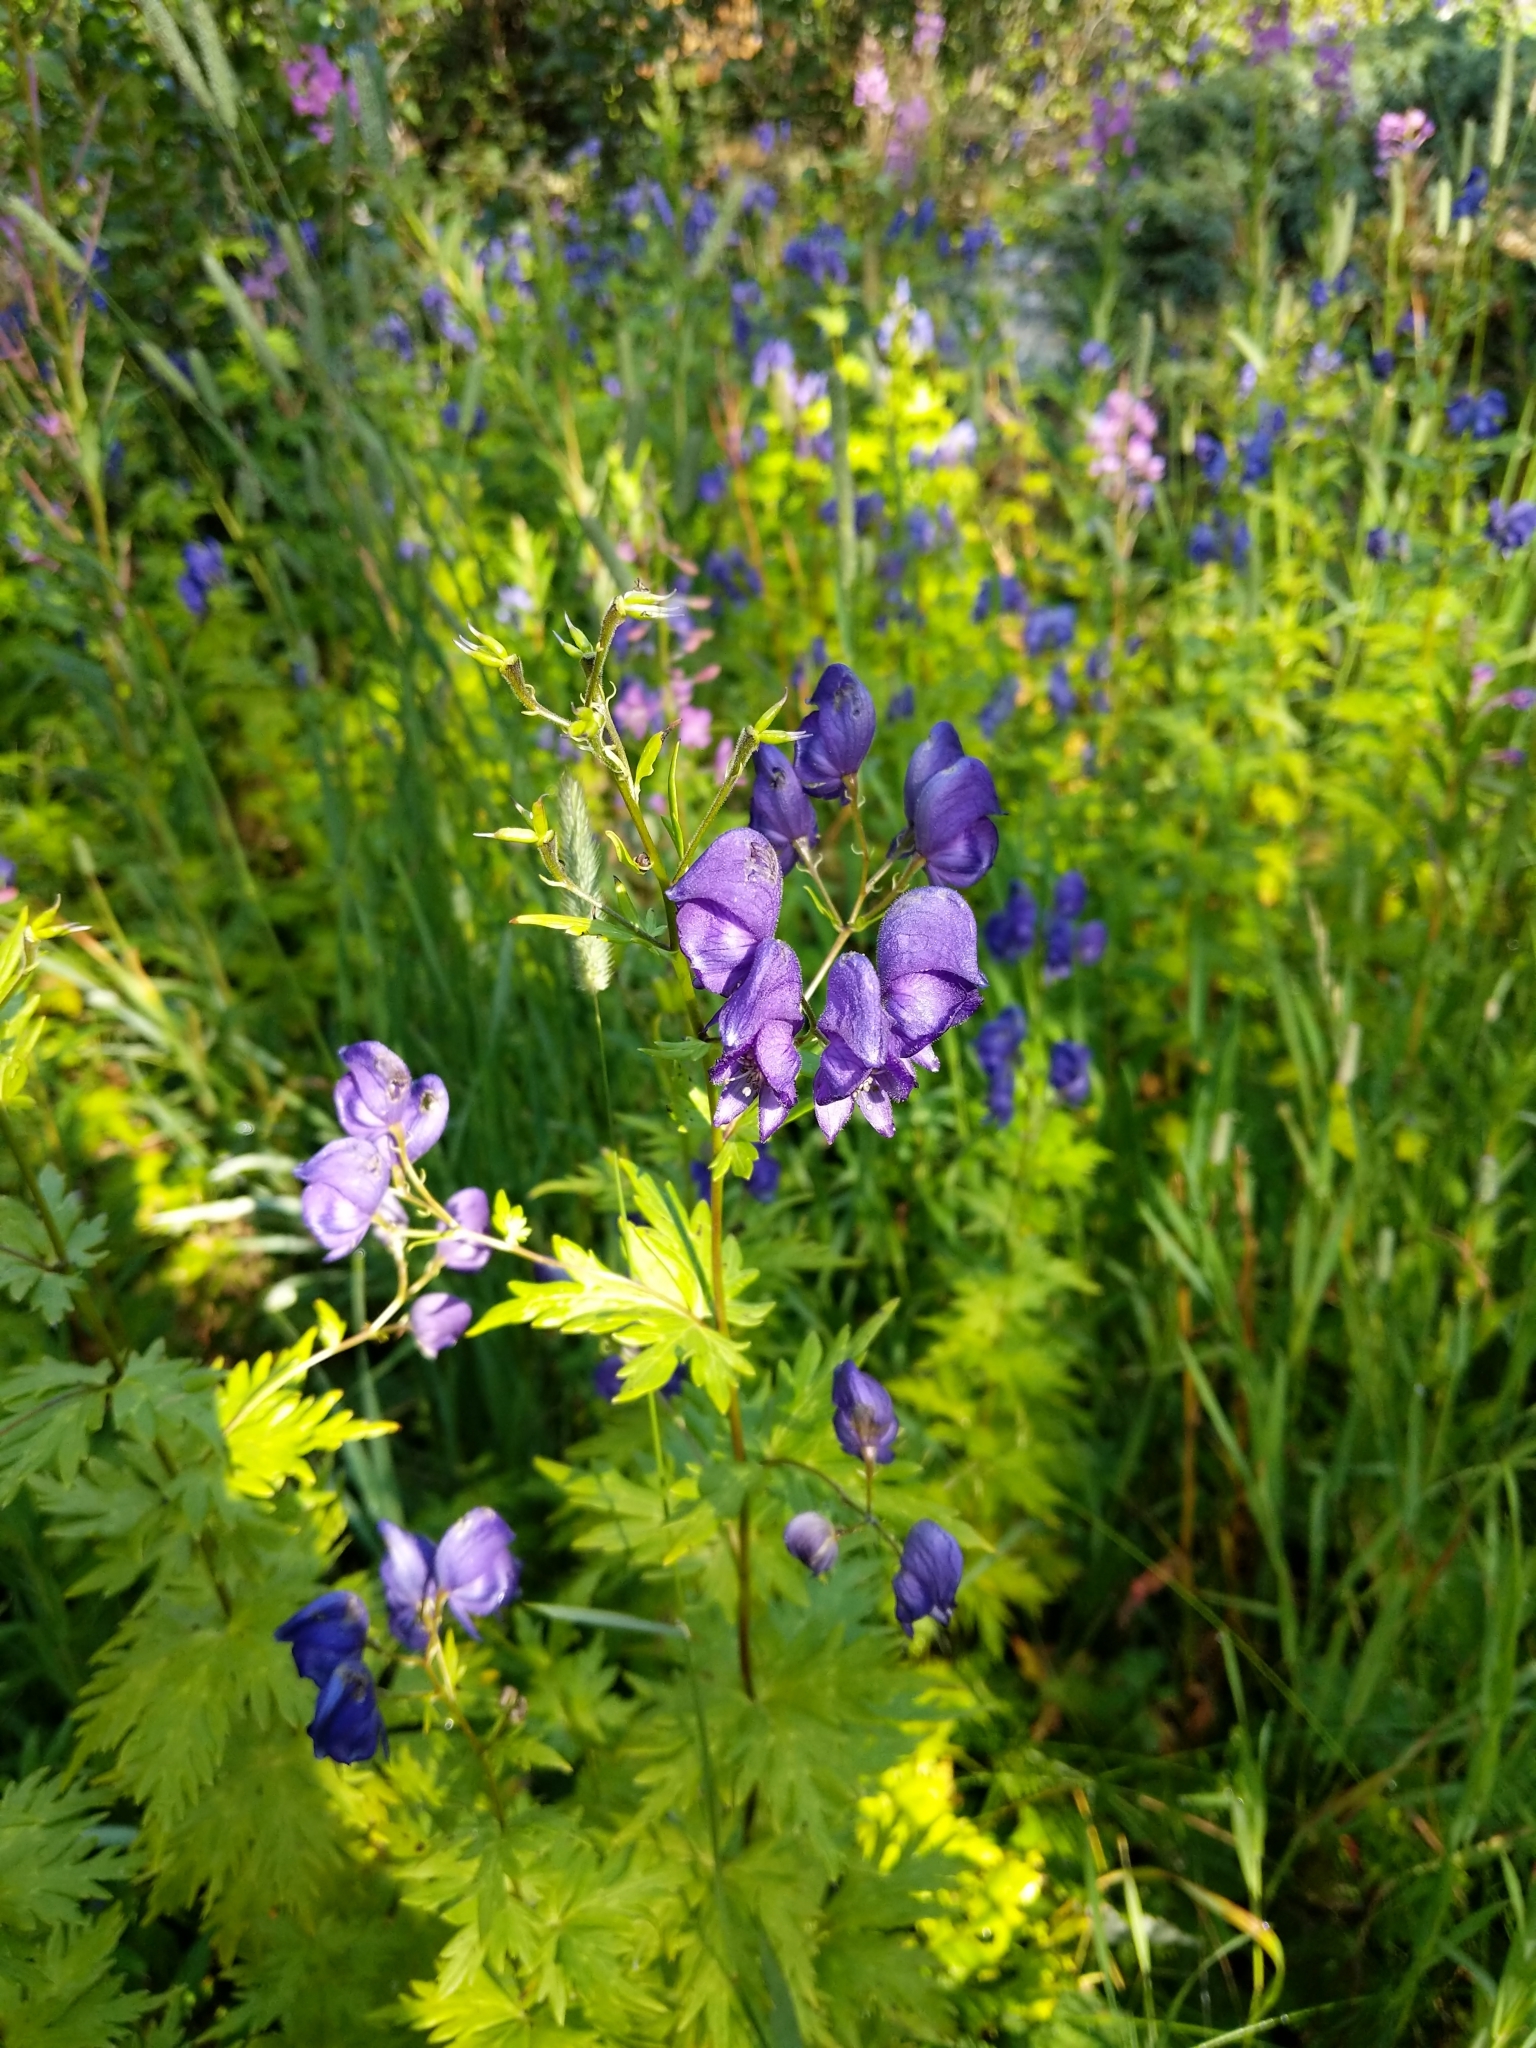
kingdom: Plantae
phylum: Tracheophyta
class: Magnoliopsida
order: Ranunculales
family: Ranunculaceae
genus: Aconitum
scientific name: Aconitum degenii
